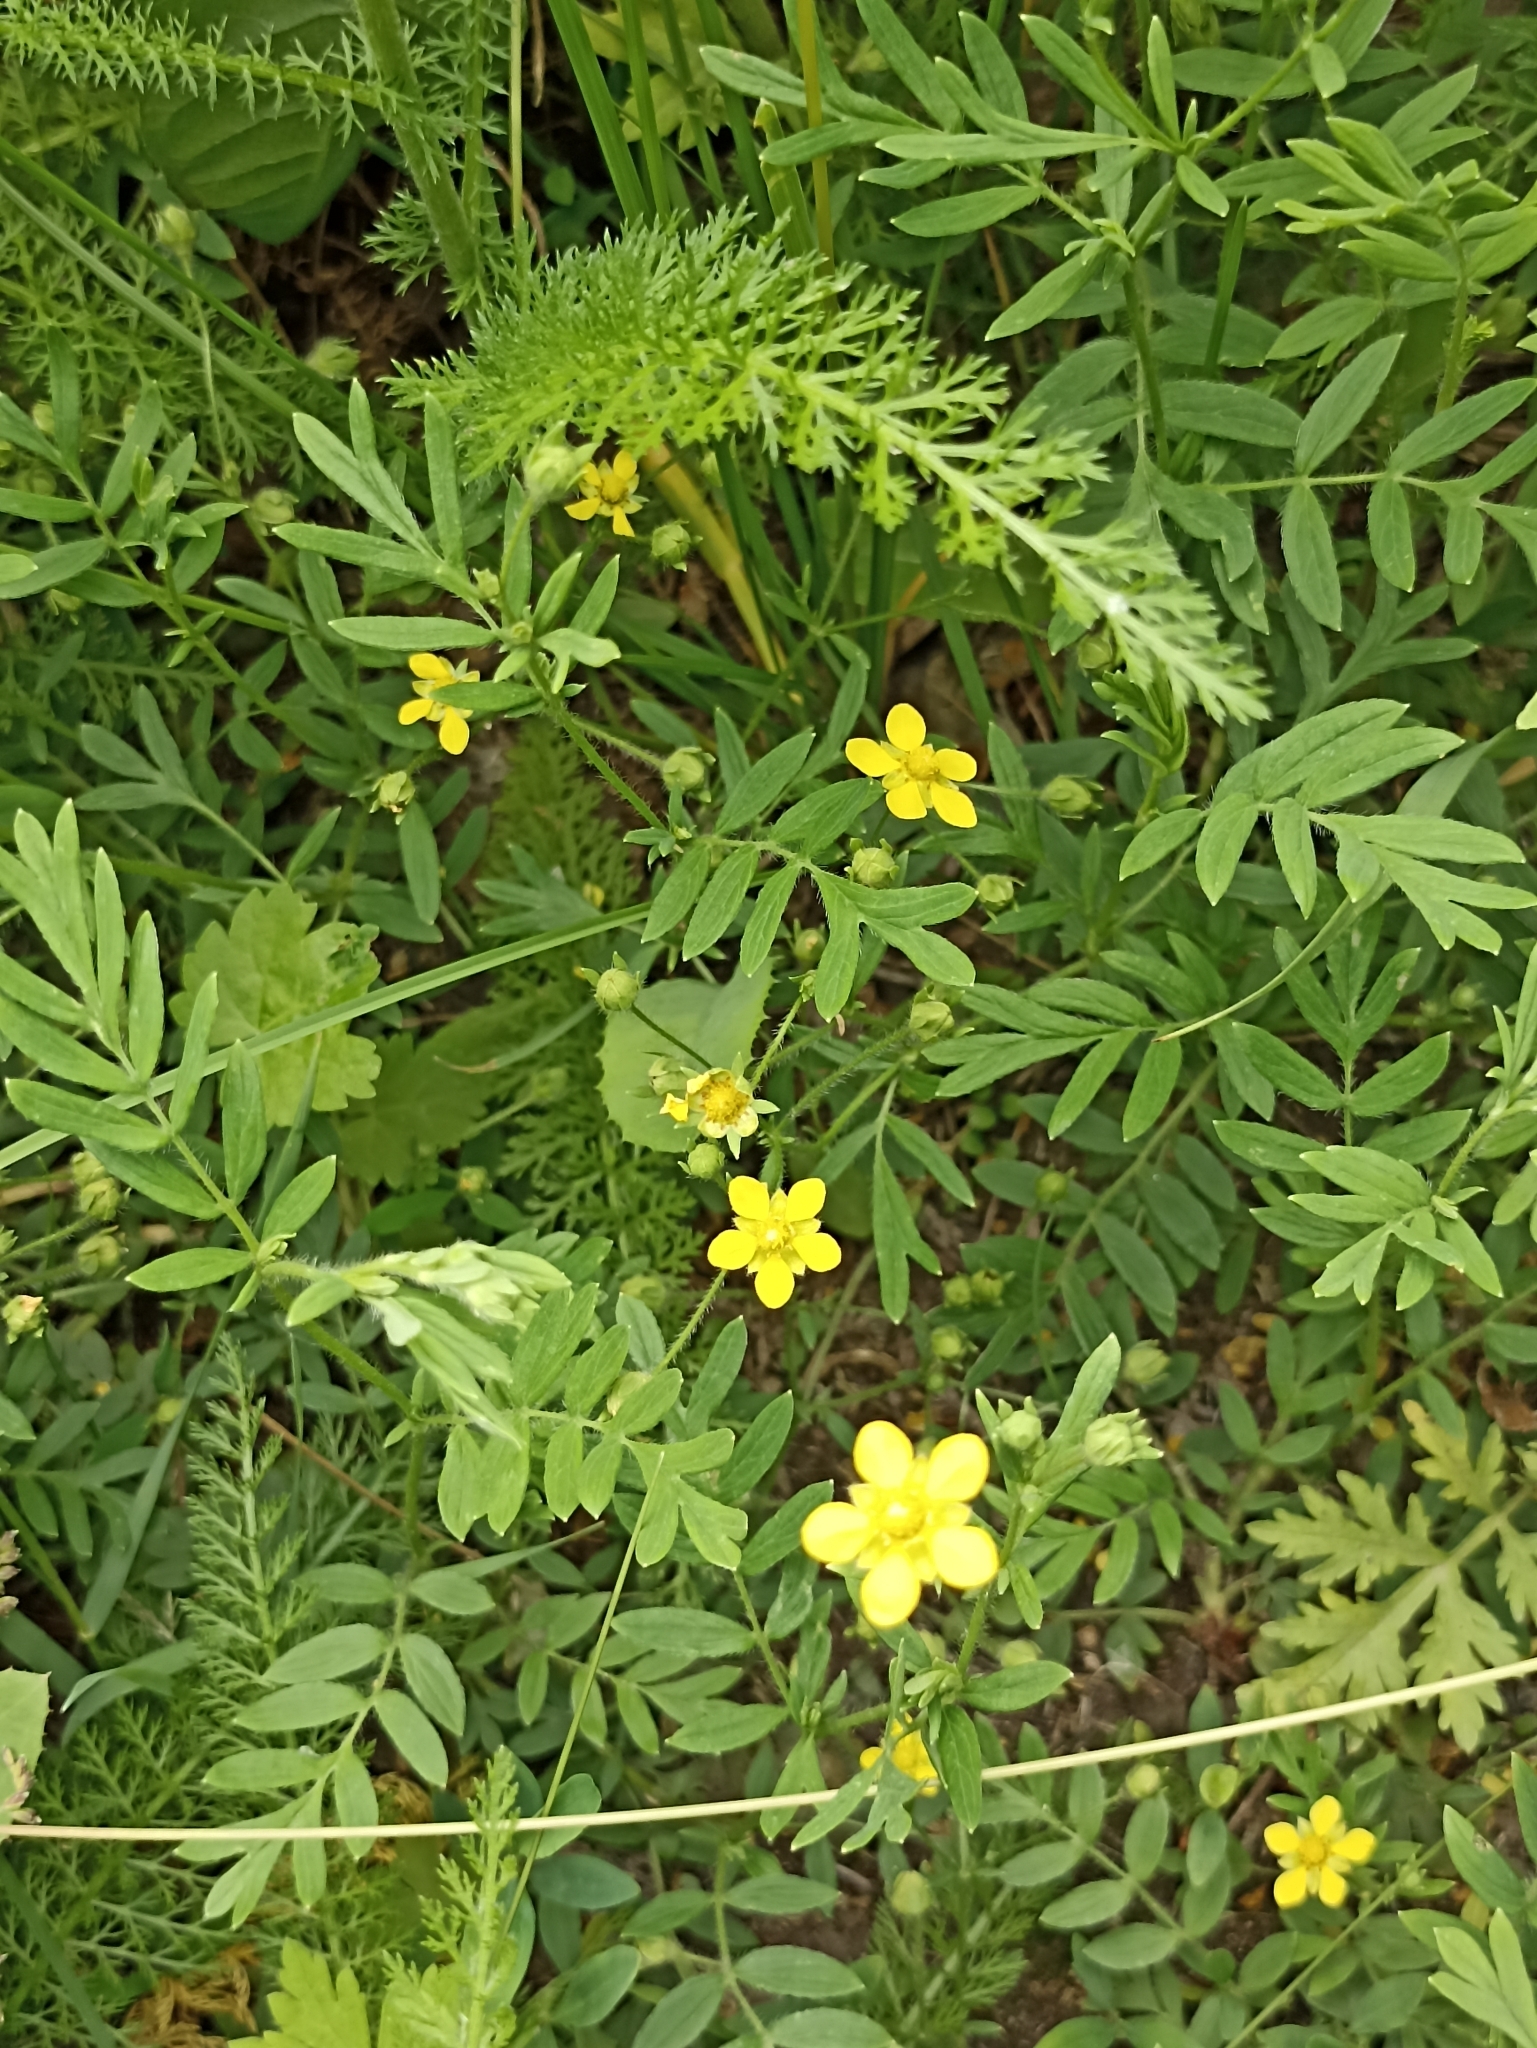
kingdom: Plantae
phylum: Tracheophyta
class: Magnoliopsida
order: Rosales
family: Rosaceae
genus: Sibbaldianthe
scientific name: Sibbaldianthe bifurca
